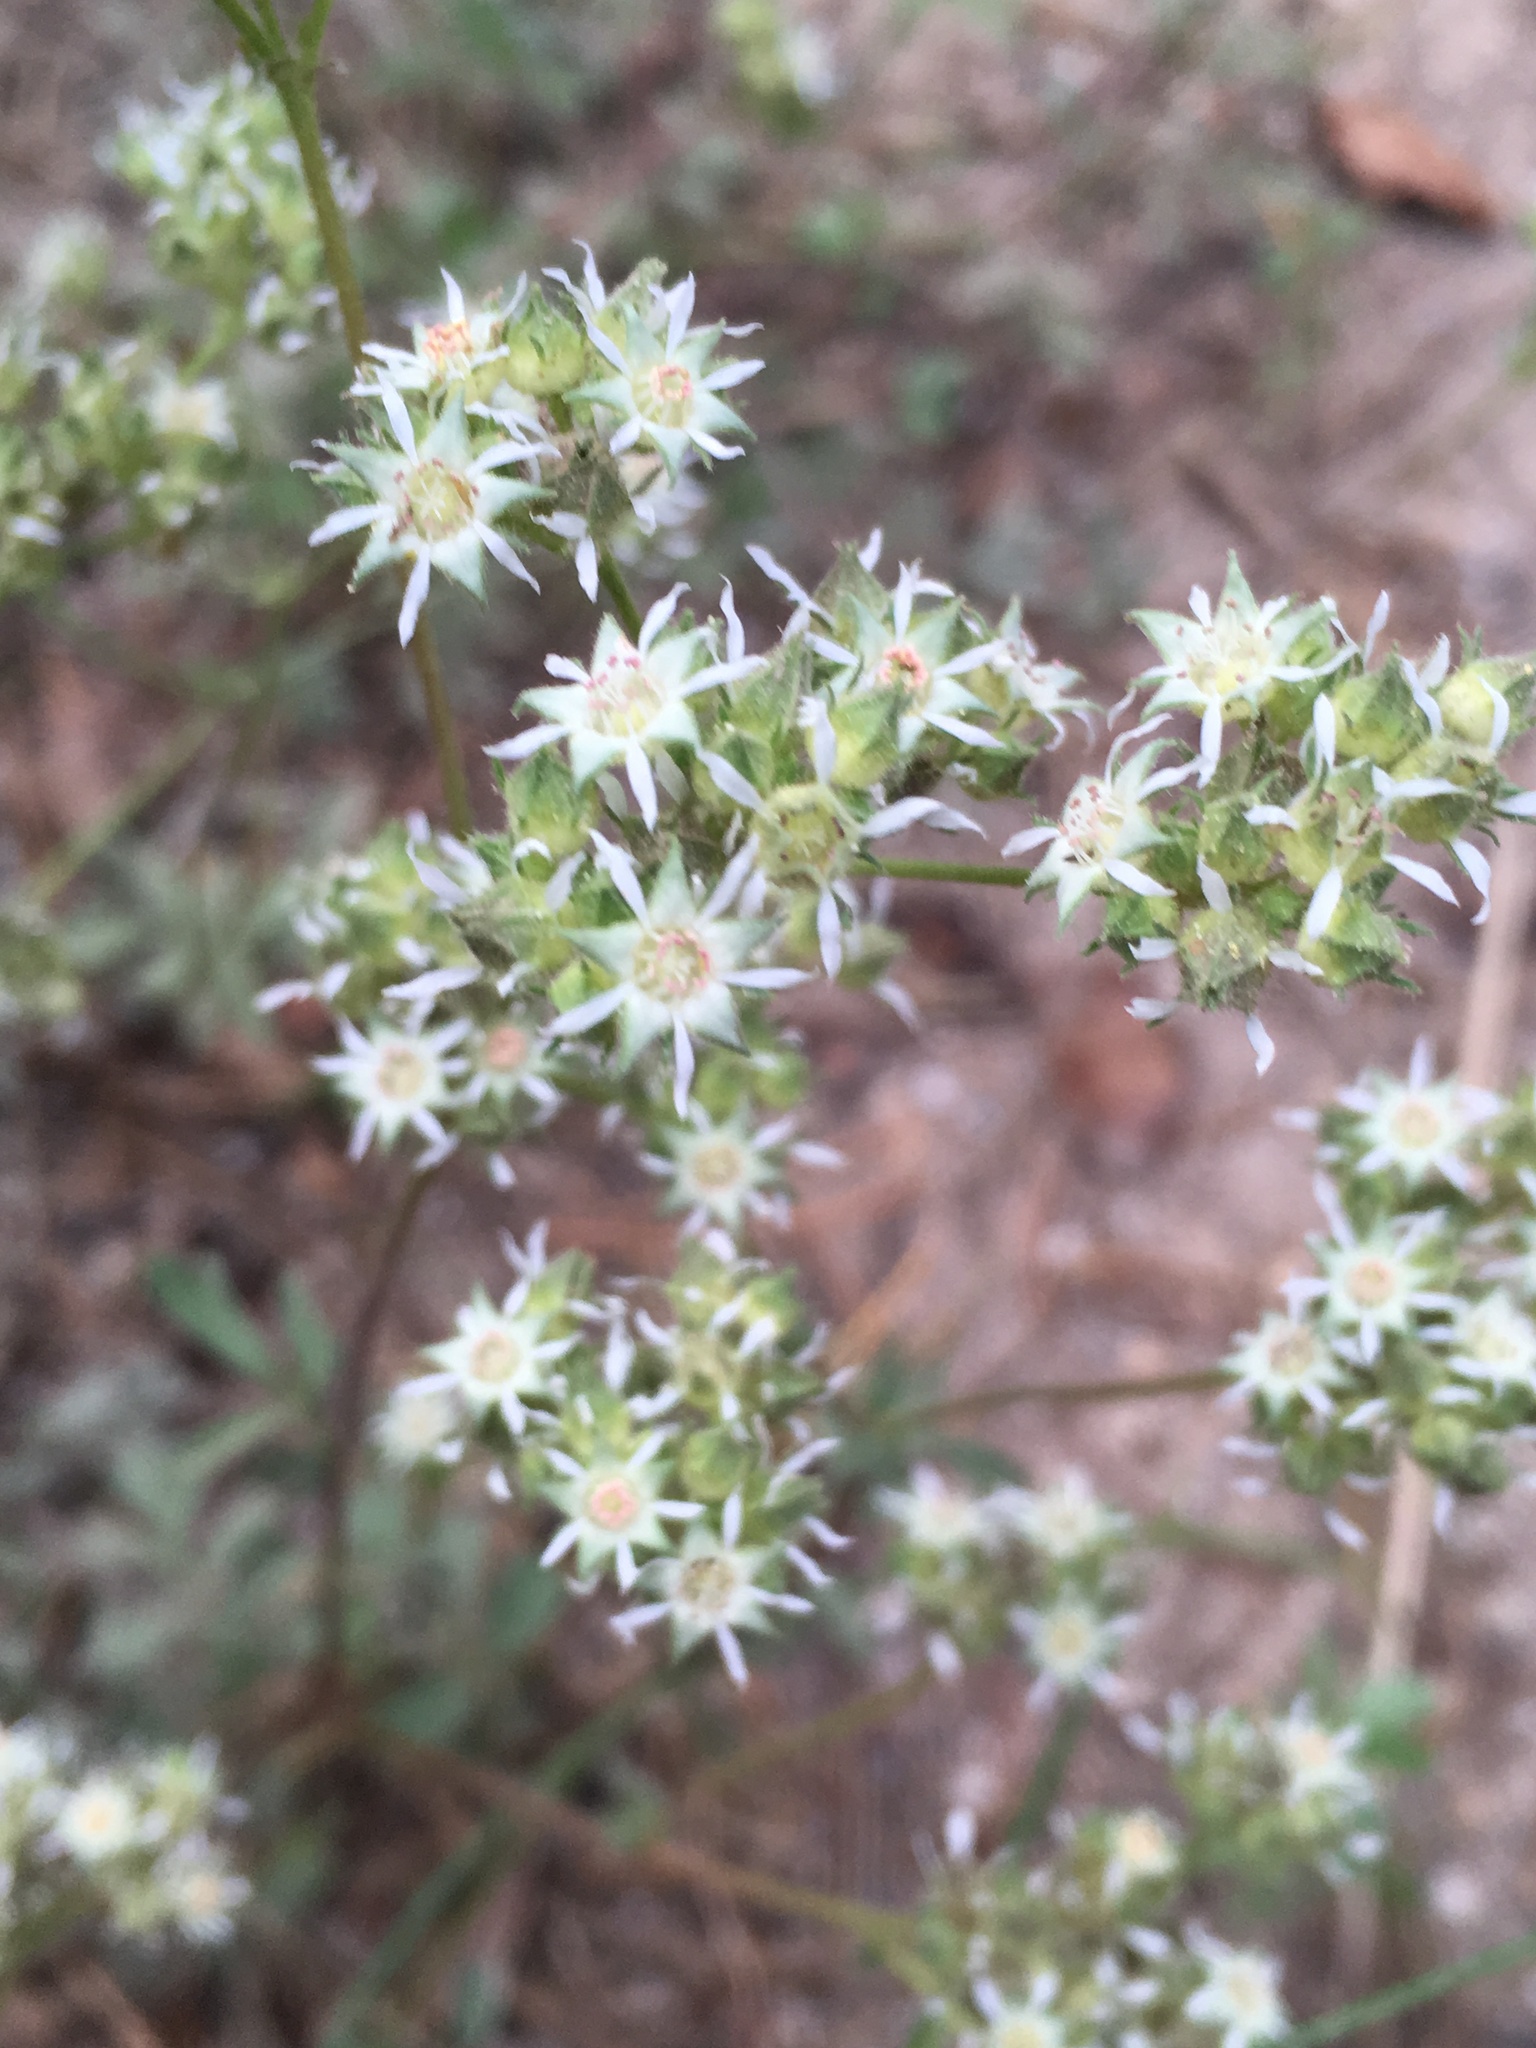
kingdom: Plantae
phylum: Tracheophyta
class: Magnoliopsida
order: Rosales
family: Rosaceae
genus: Potentilla
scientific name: Potentilla tilingii
